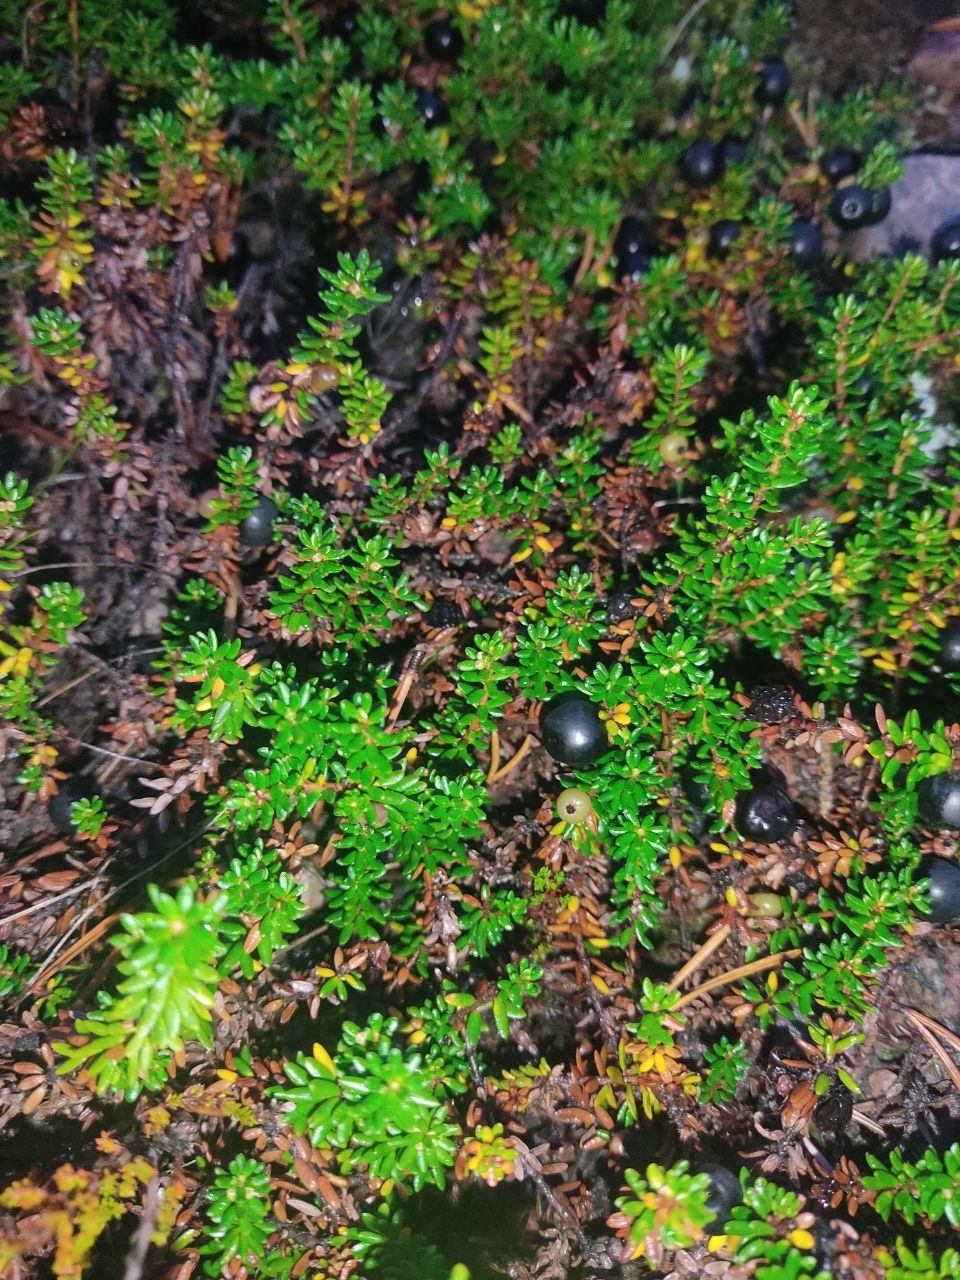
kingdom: Plantae
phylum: Tracheophyta
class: Magnoliopsida
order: Ericales
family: Ericaceae
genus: Empetrum
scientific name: Empetrum nigrum
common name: Black crowberry
